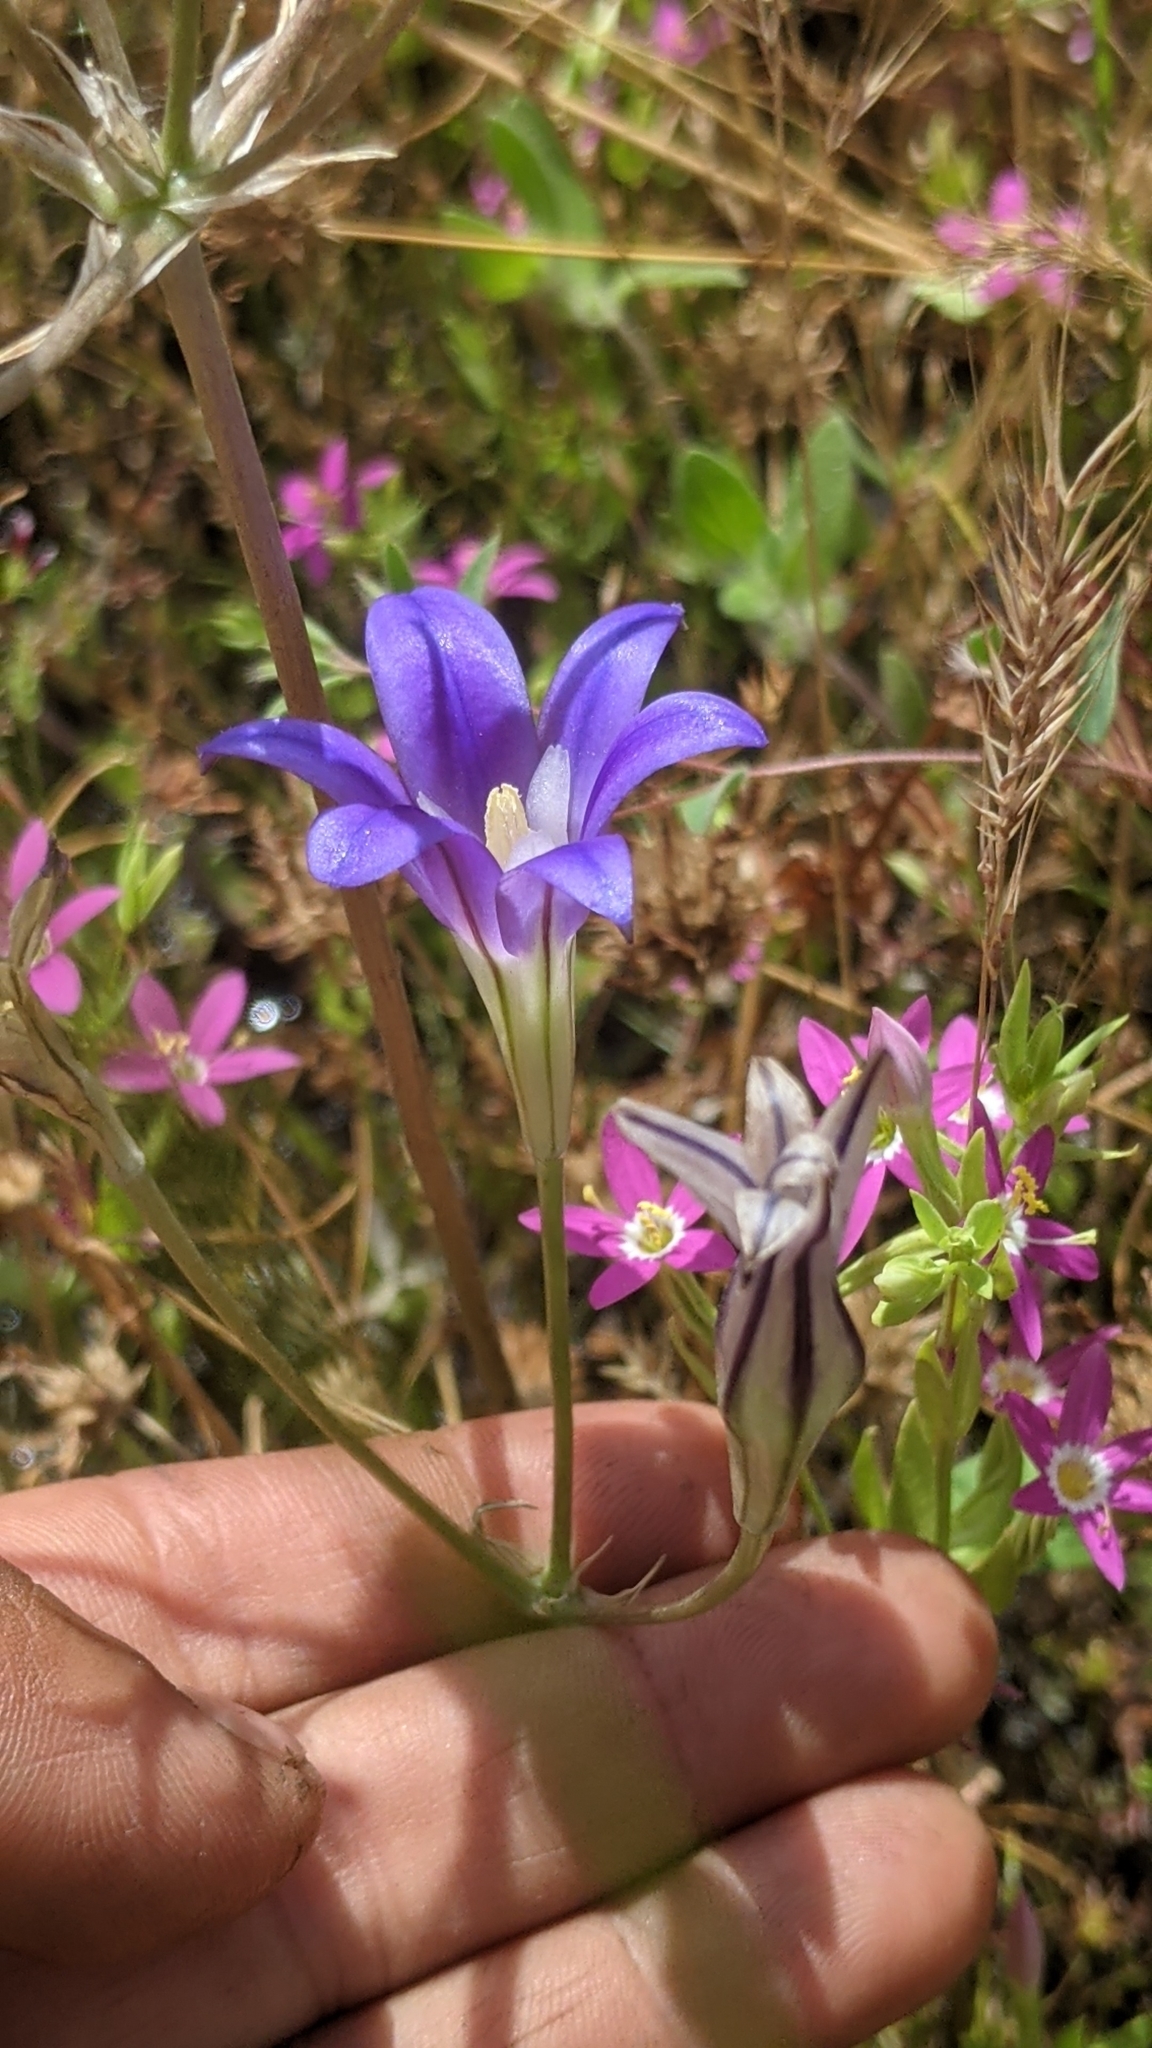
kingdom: Plantae
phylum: Tracheophyta
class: Liliopsida
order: Asparagales
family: Asparagaceae
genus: Brodiaea
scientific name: Brodiaea elegans
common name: Elegant cluster-lily
